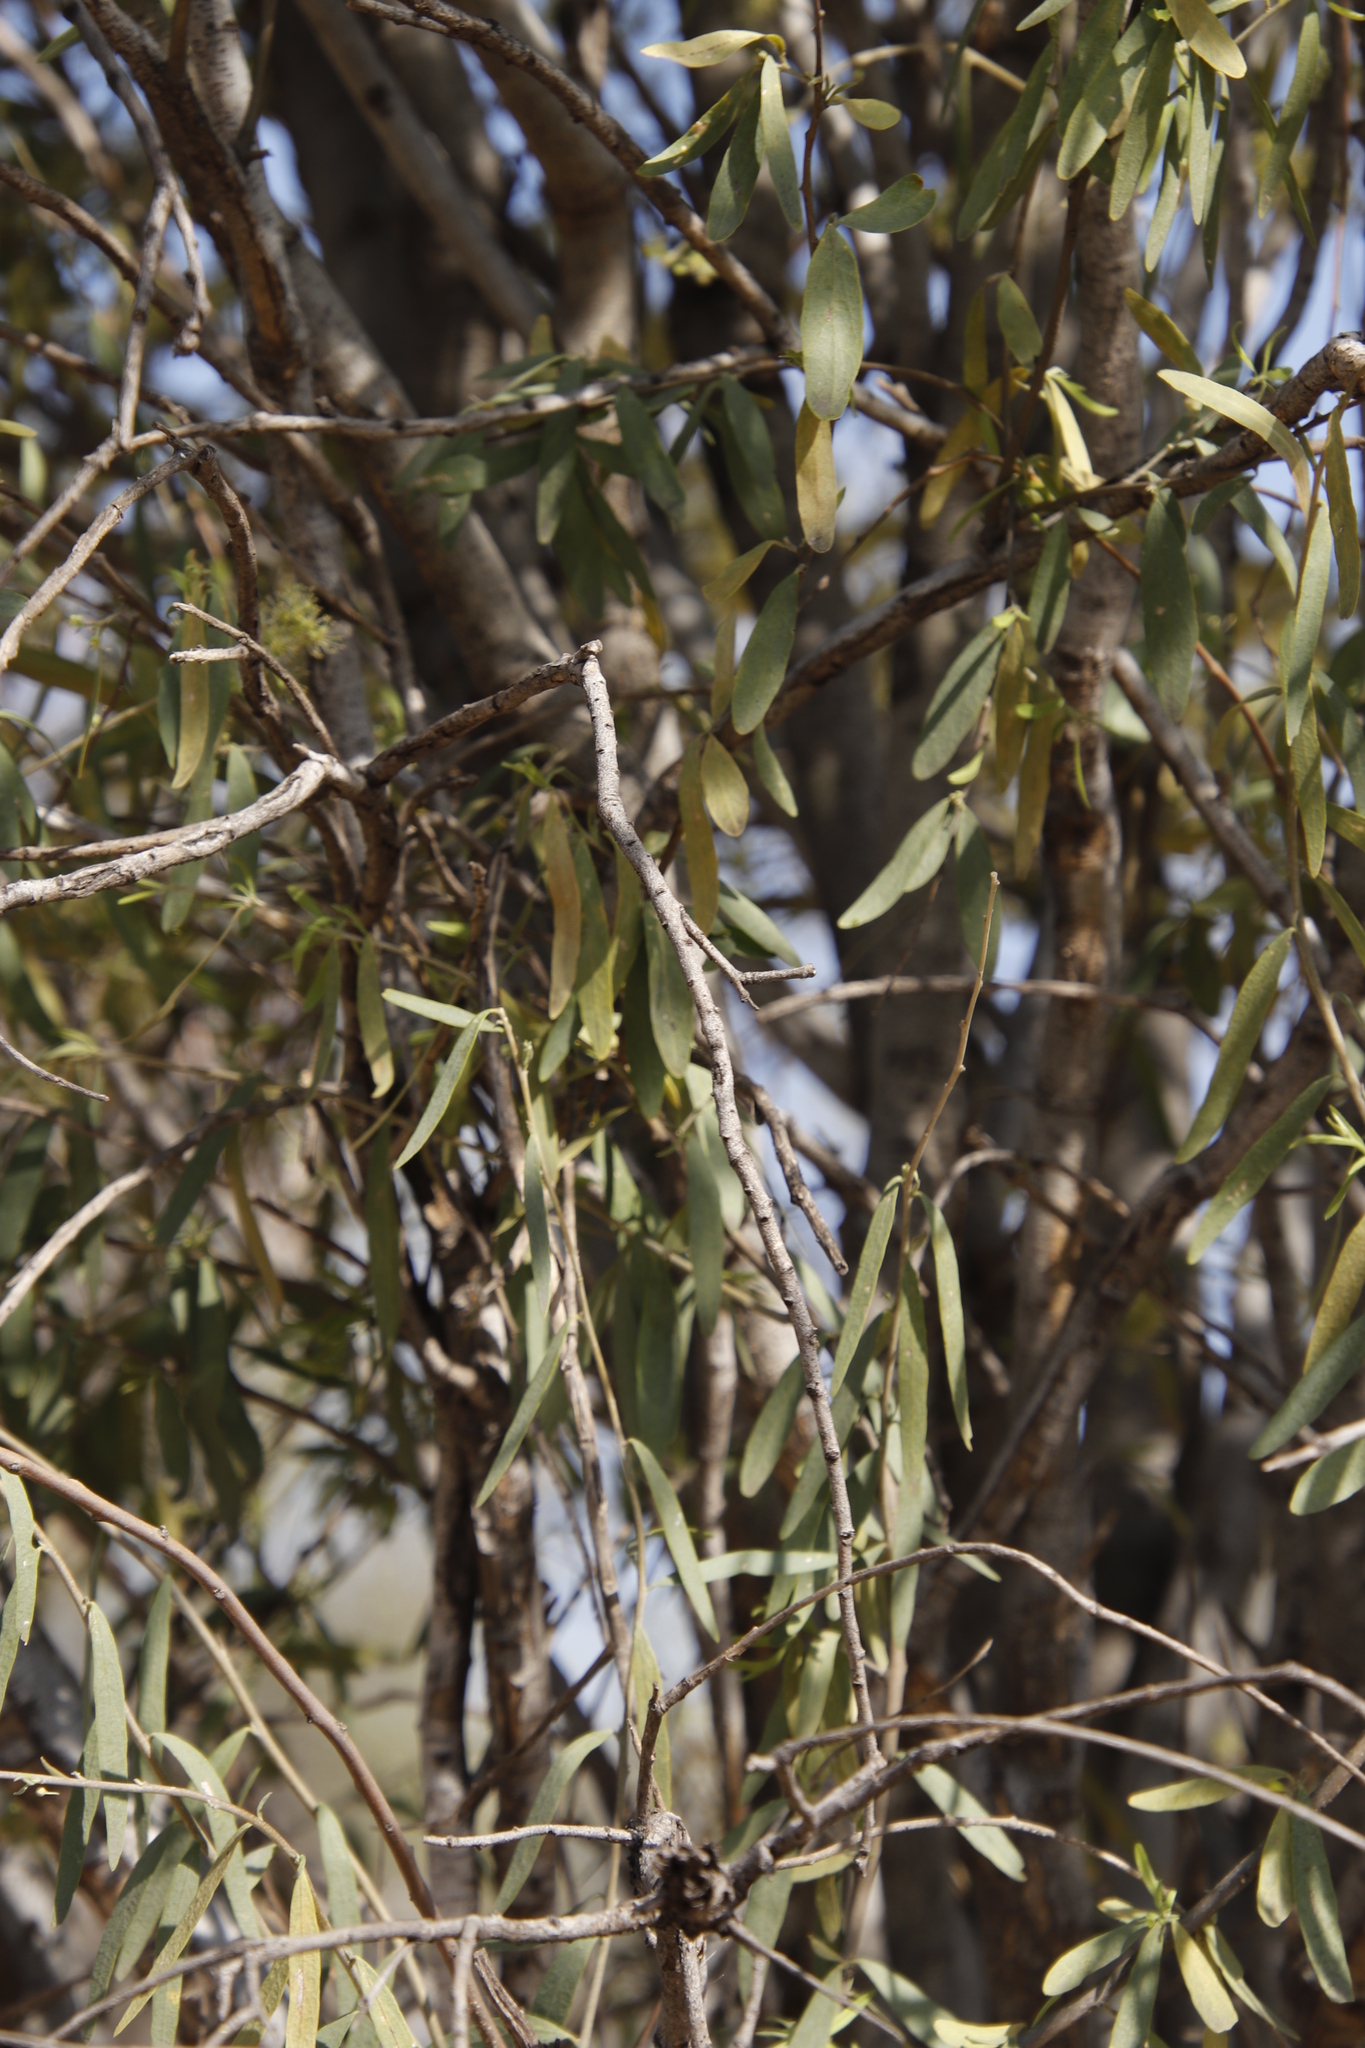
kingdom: Plantae
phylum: Tracheophyta
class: Magnoliopsida
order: Brassicales
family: Capparaceae
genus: Boscia
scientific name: Boscia albitrunca
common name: Caper bush
